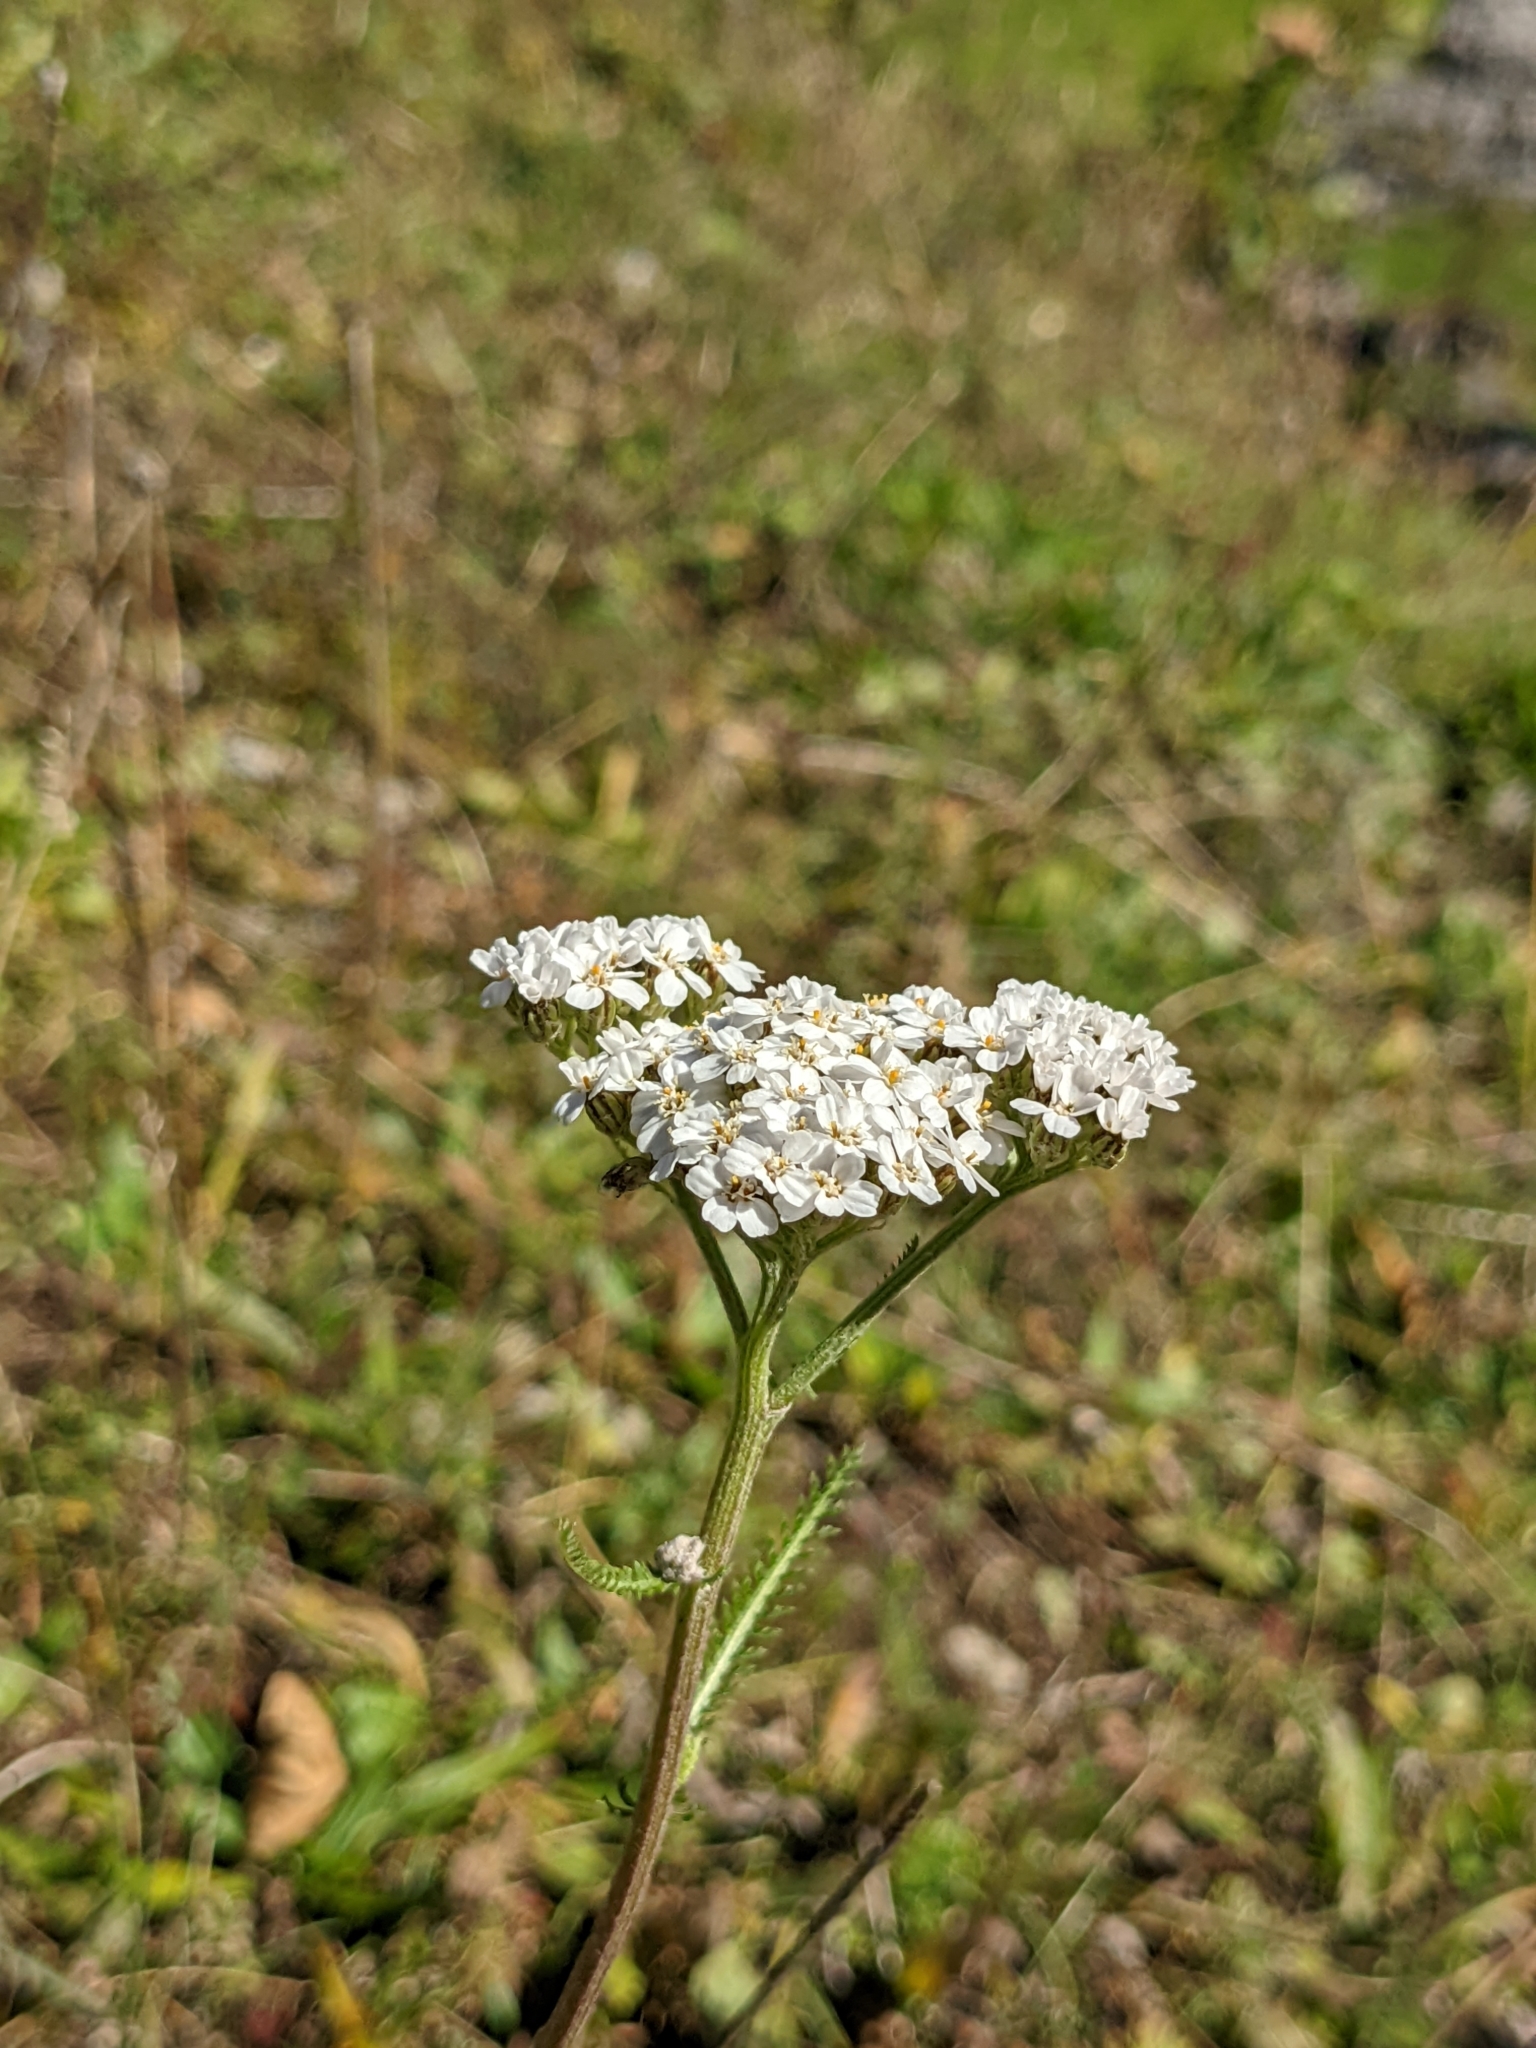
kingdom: Plantae
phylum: Tracheophyta
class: Magnoliopsida
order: Asterales
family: Asteraceae
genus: Achillea
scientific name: Achillea millefolium
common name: Yarrow
